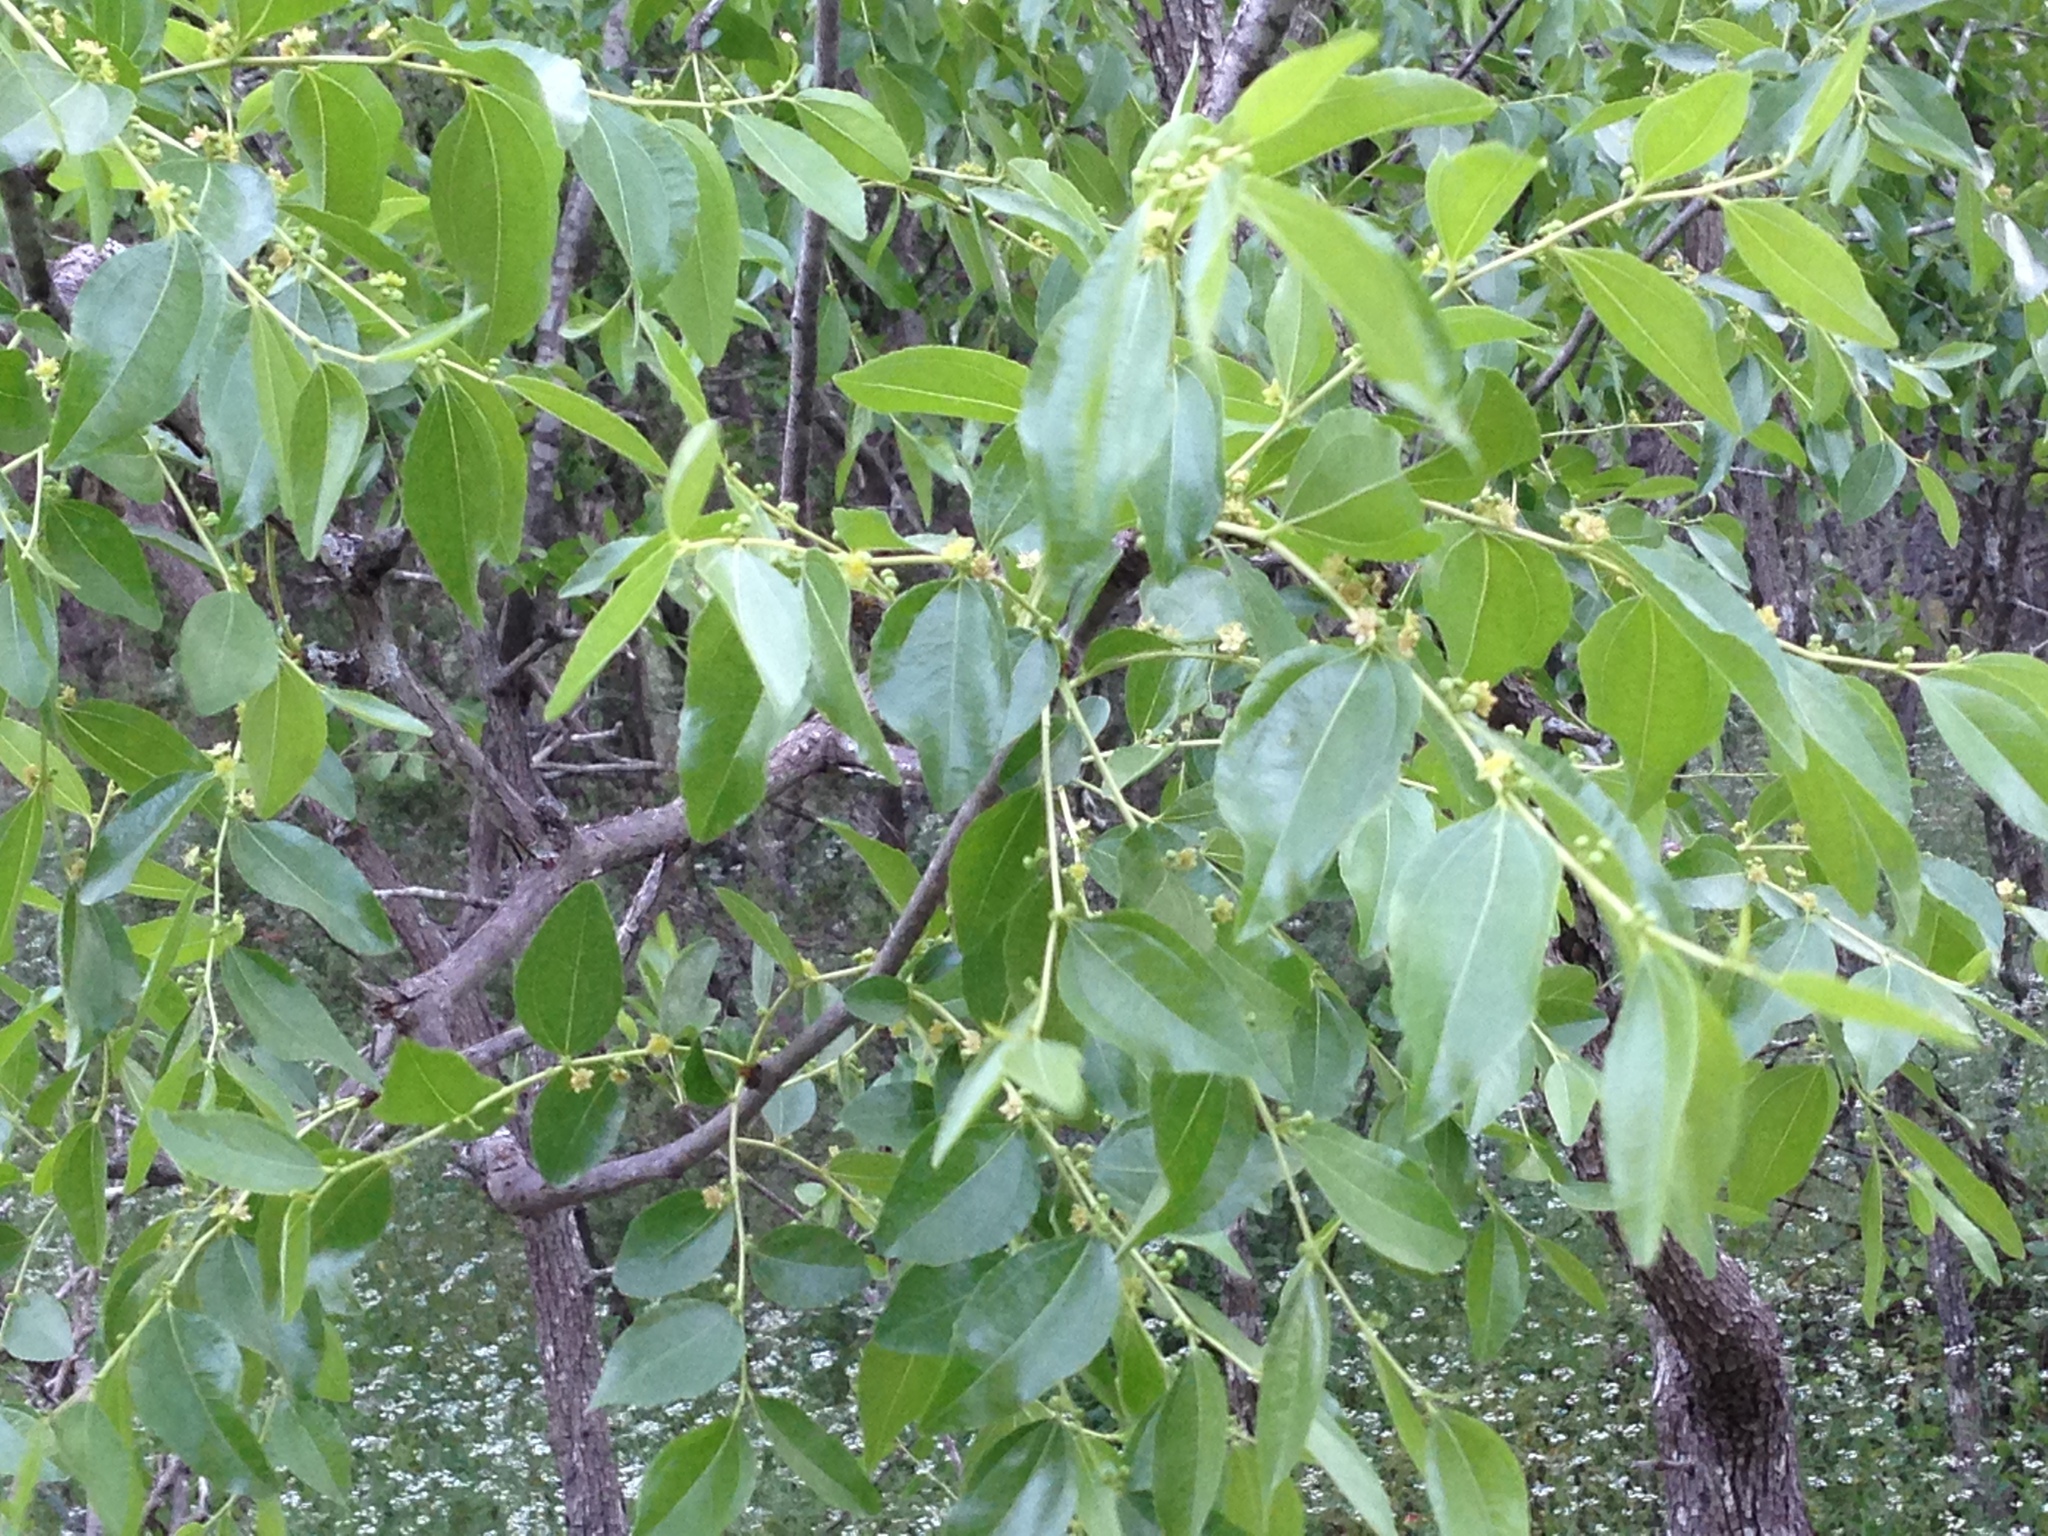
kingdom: Plantae
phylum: Tracheophyta
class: Magnoliopsida
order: Rosales
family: Rhamnaceae
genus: Ziziphus
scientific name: Ziziphus jujuba
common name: Jujube red date
